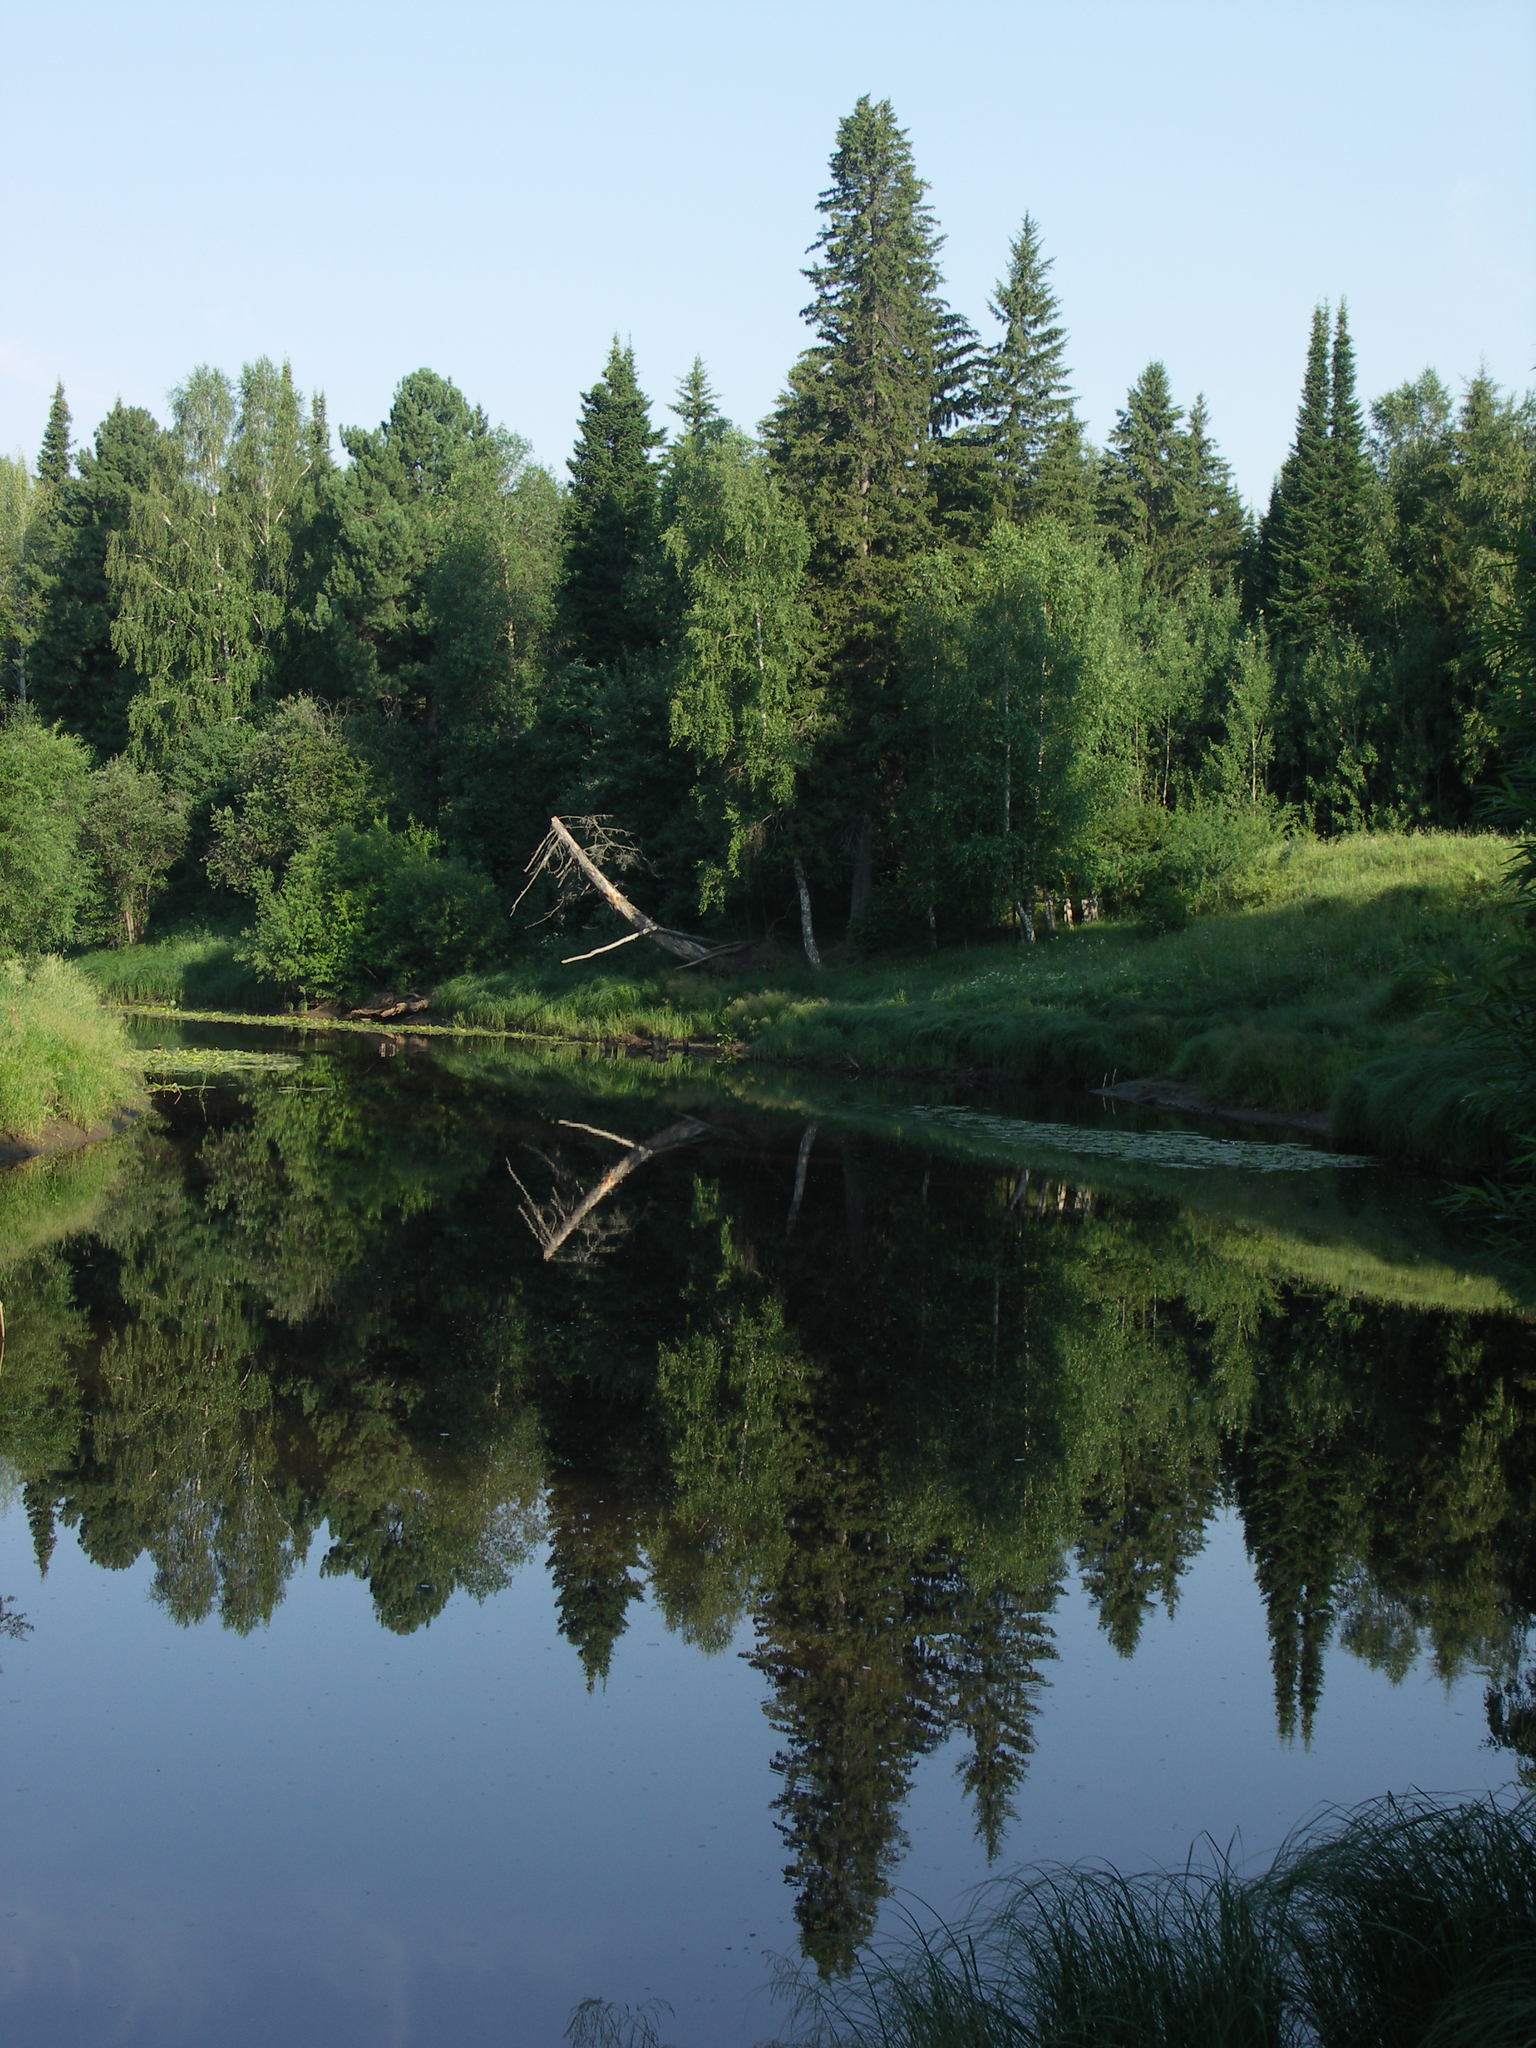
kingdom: Plantae
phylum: Tracheophyta
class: Pinopsida
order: Pinales
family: Pinaceae
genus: Picea
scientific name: Picea obovata
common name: Siberian spruce
